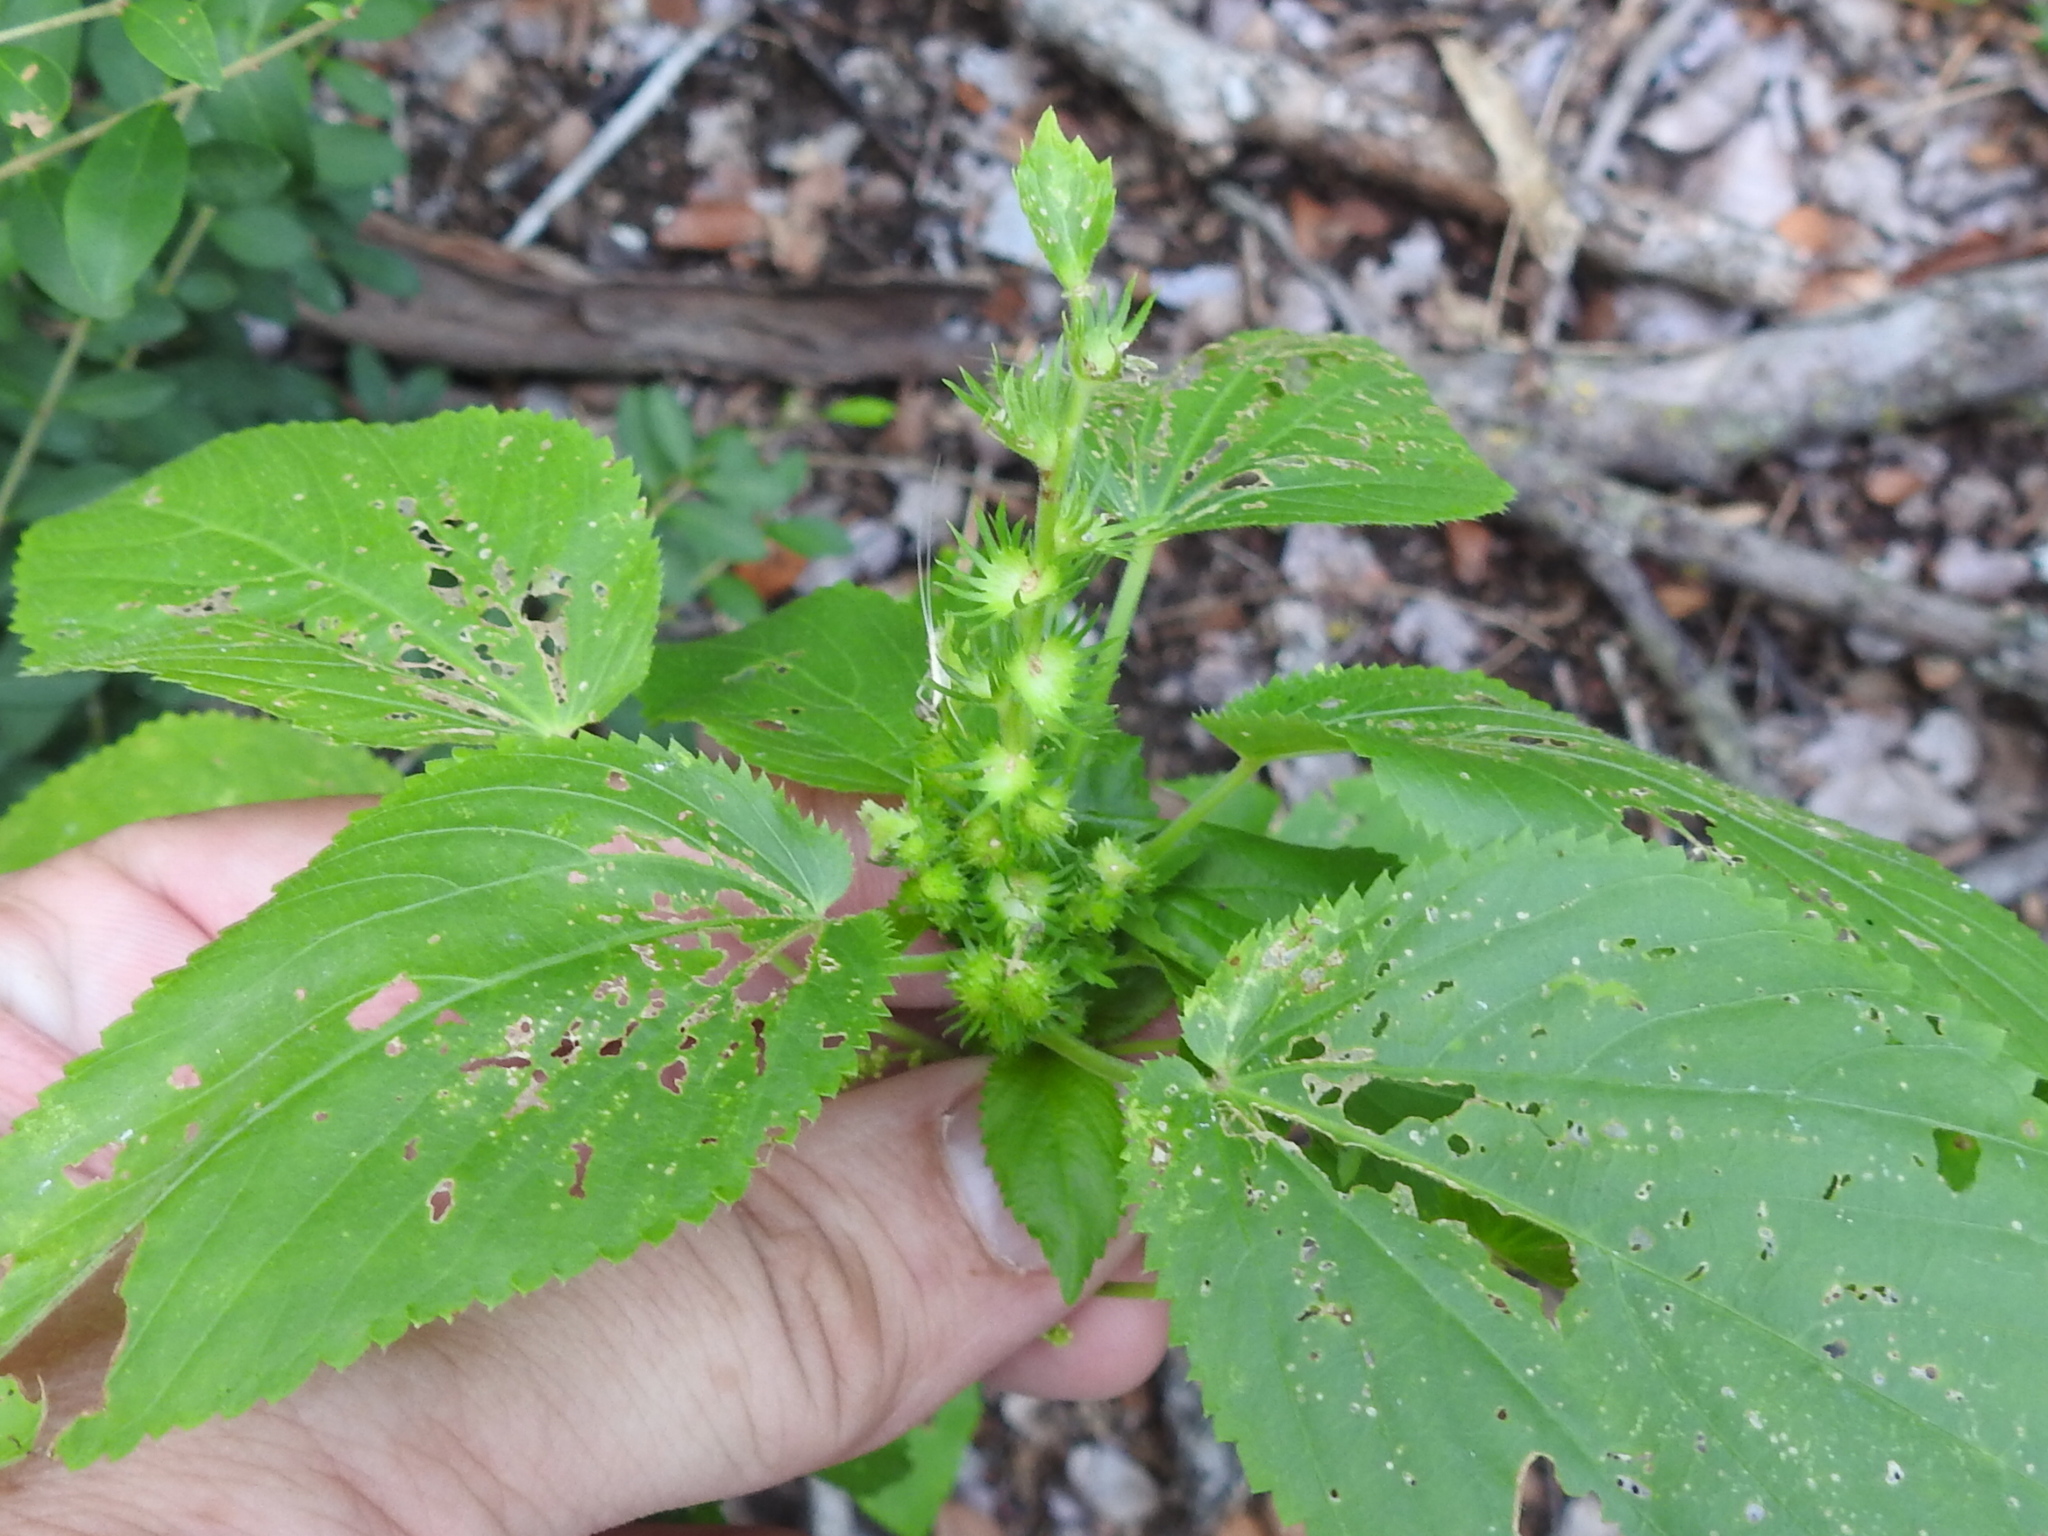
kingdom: Plantae
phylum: Tracheophyta
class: Magnoliopsida
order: Malpighiales
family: Euphorbiaceae
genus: Acalypha
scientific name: Acalypha ostryifolia
